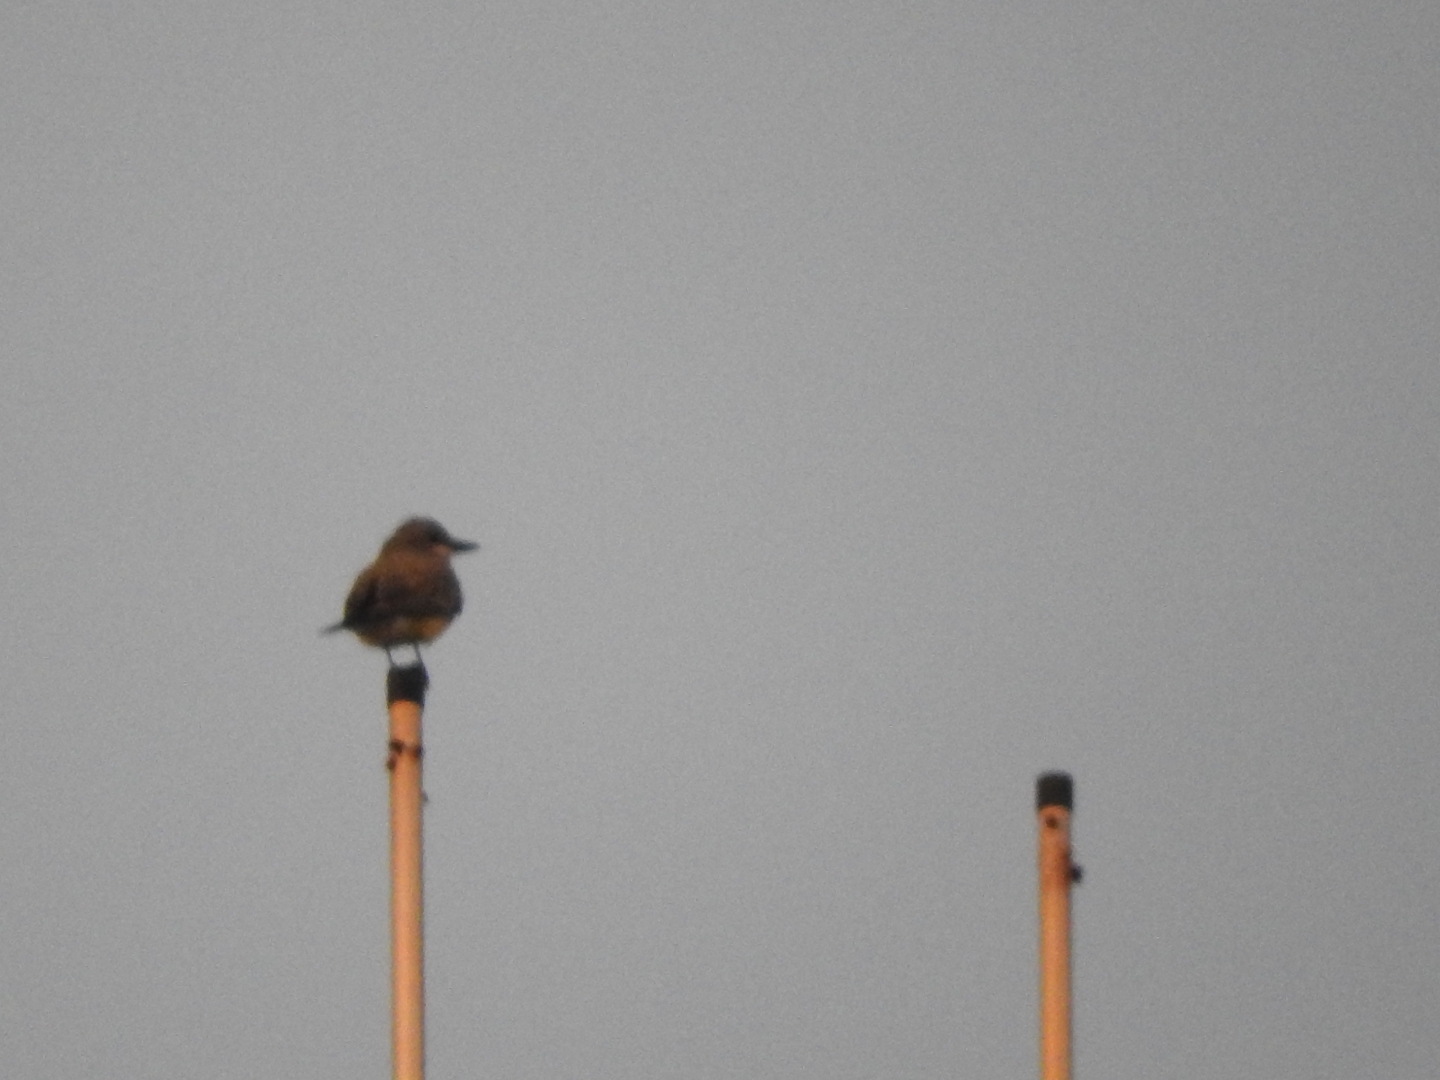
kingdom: Animalia
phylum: Chordata
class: Aves
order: Passeriformes
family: Tyrannidae
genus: Tyrannus
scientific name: Tyrannus vociferans
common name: Cassin's kingbird
